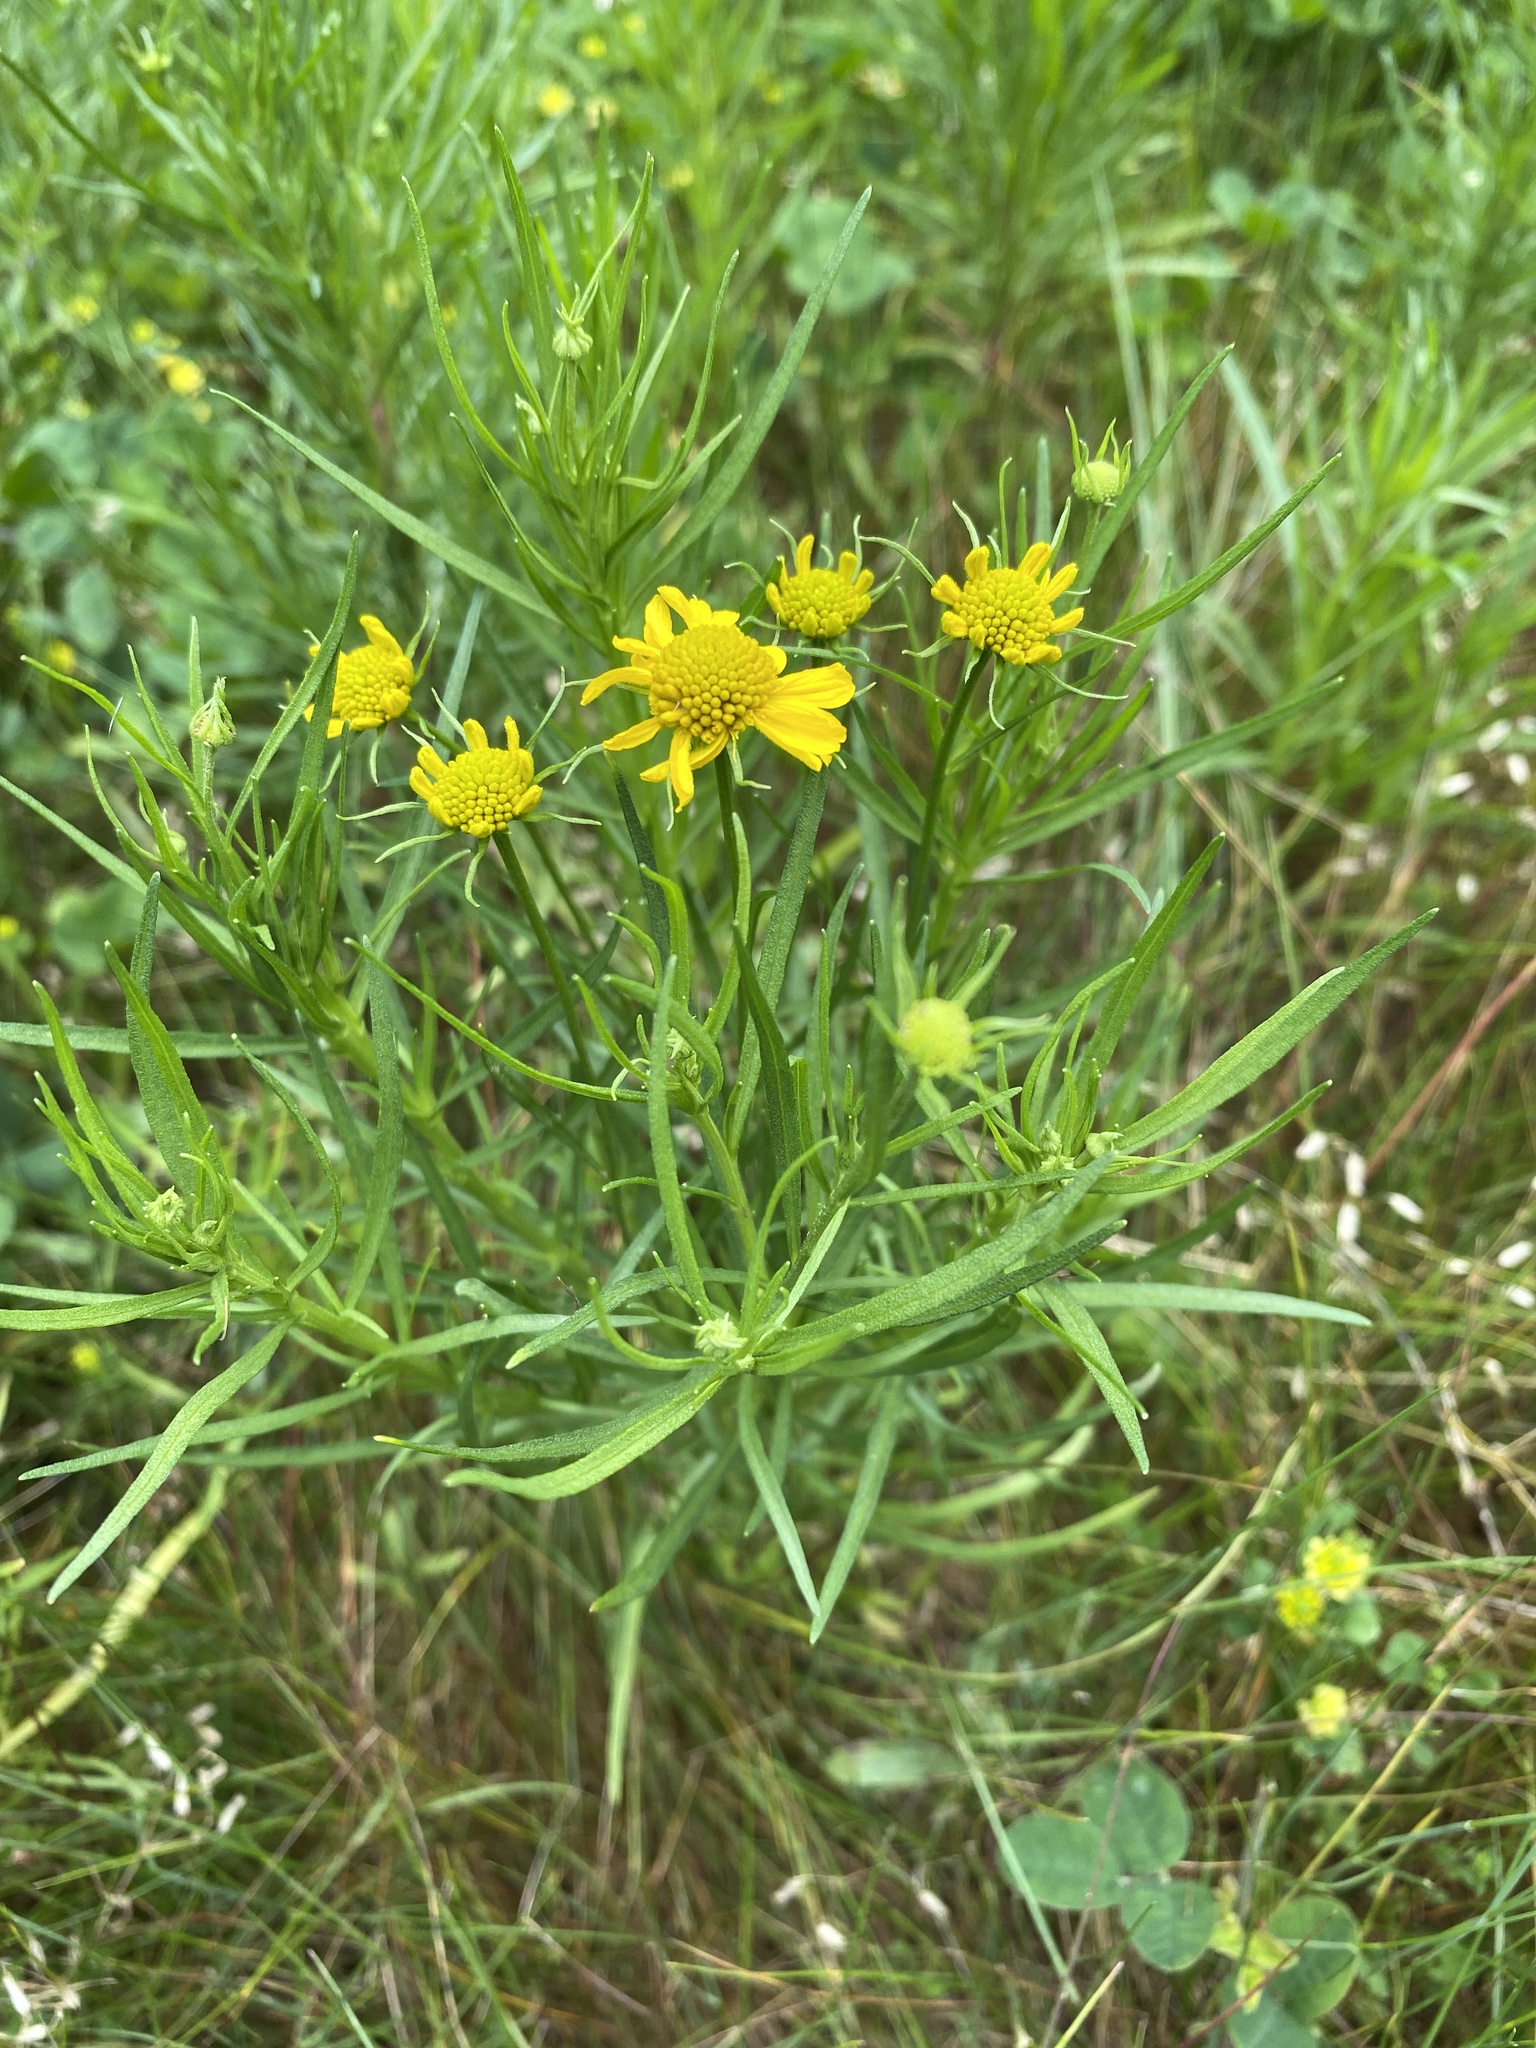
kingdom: Plantae
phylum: Tracheophyta
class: Magnoliopsida
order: Asterales
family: Asteraceae
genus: Helenium
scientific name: Helenium amarum
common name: Bitter sneezeweed
